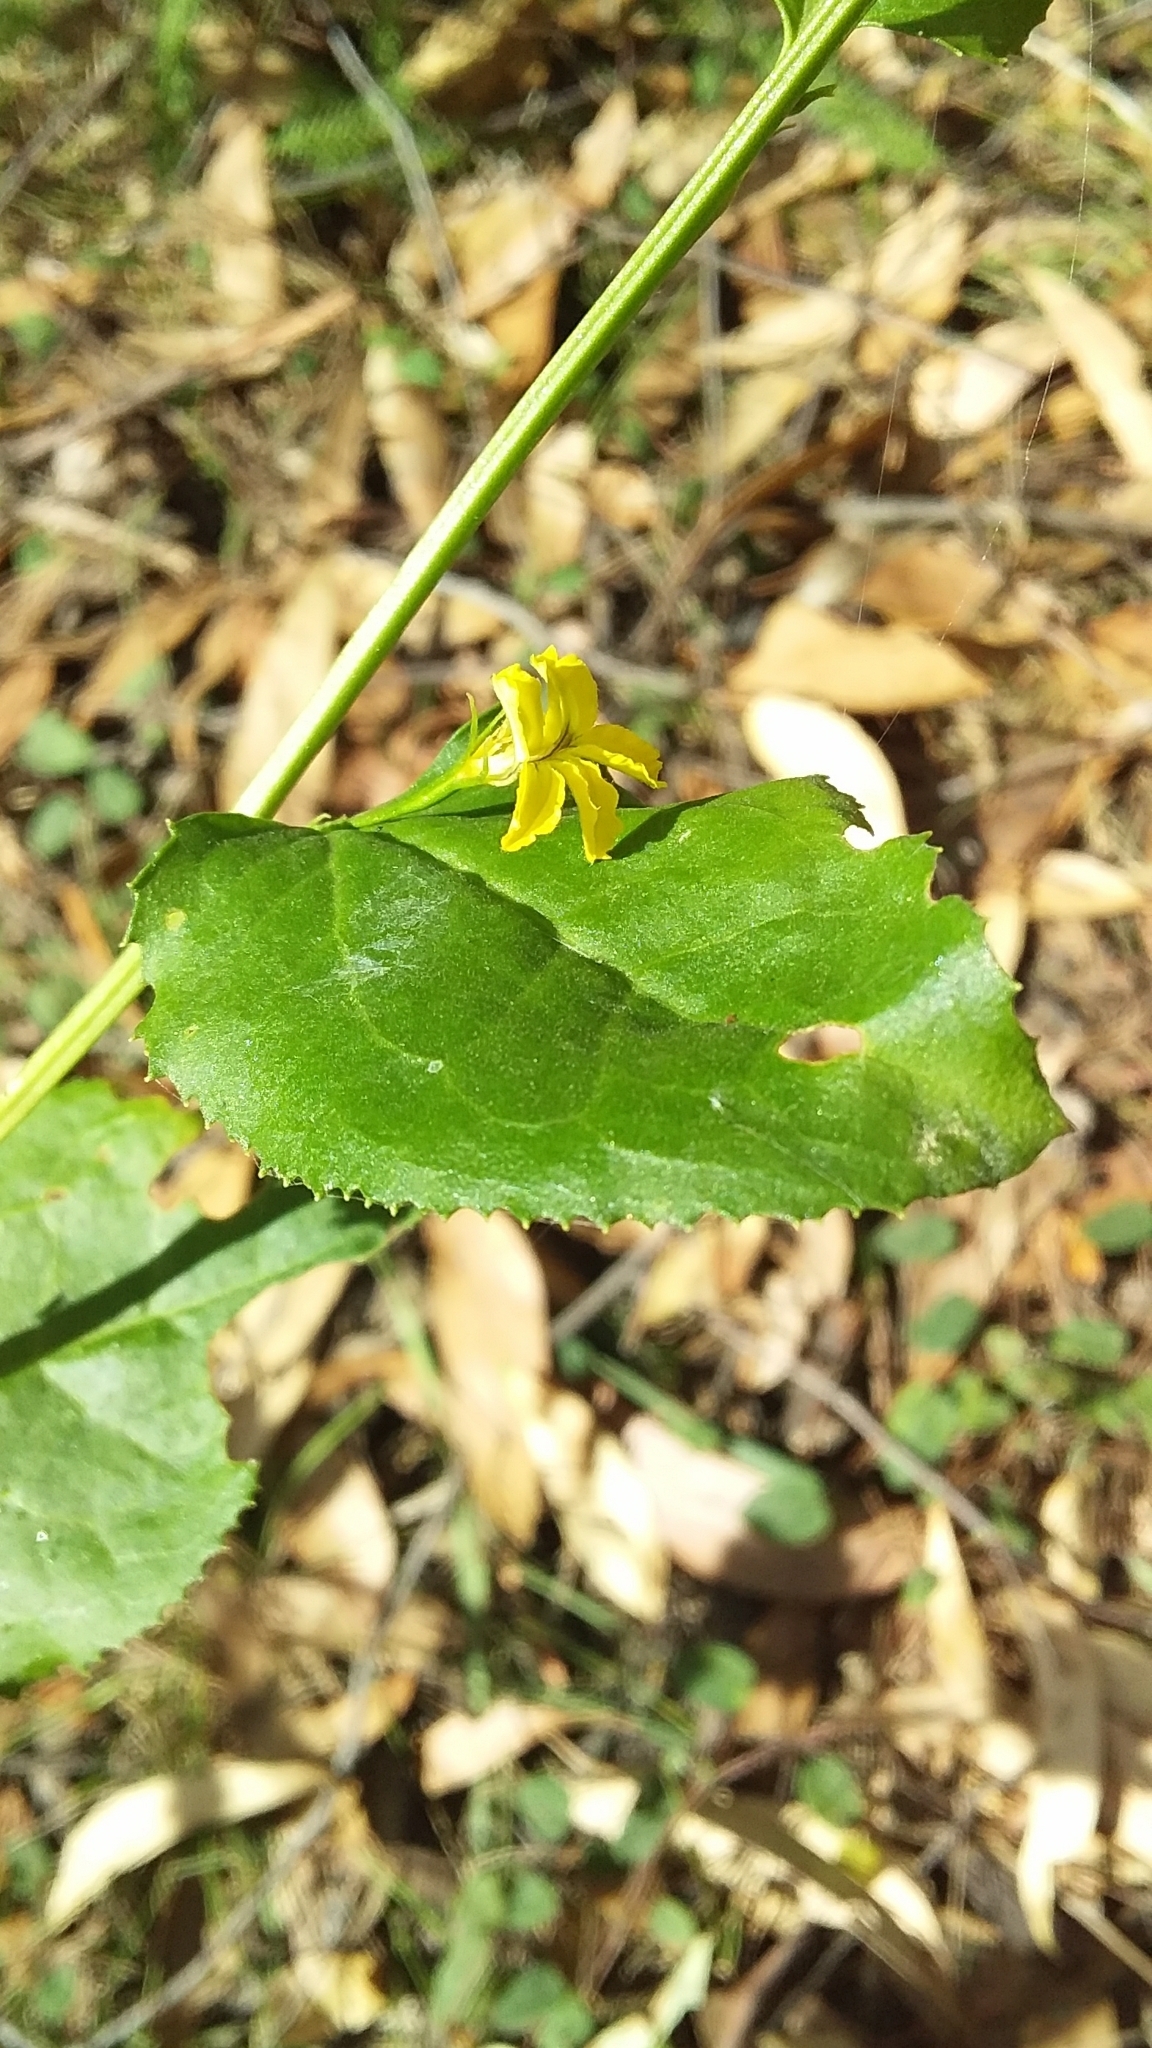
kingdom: Plantae
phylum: Tracheophyta
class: Magnoliopsida
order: Asterales
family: Goodeniaceae
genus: Goodenia
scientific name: Goodenia ovata
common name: Hop goodenia
